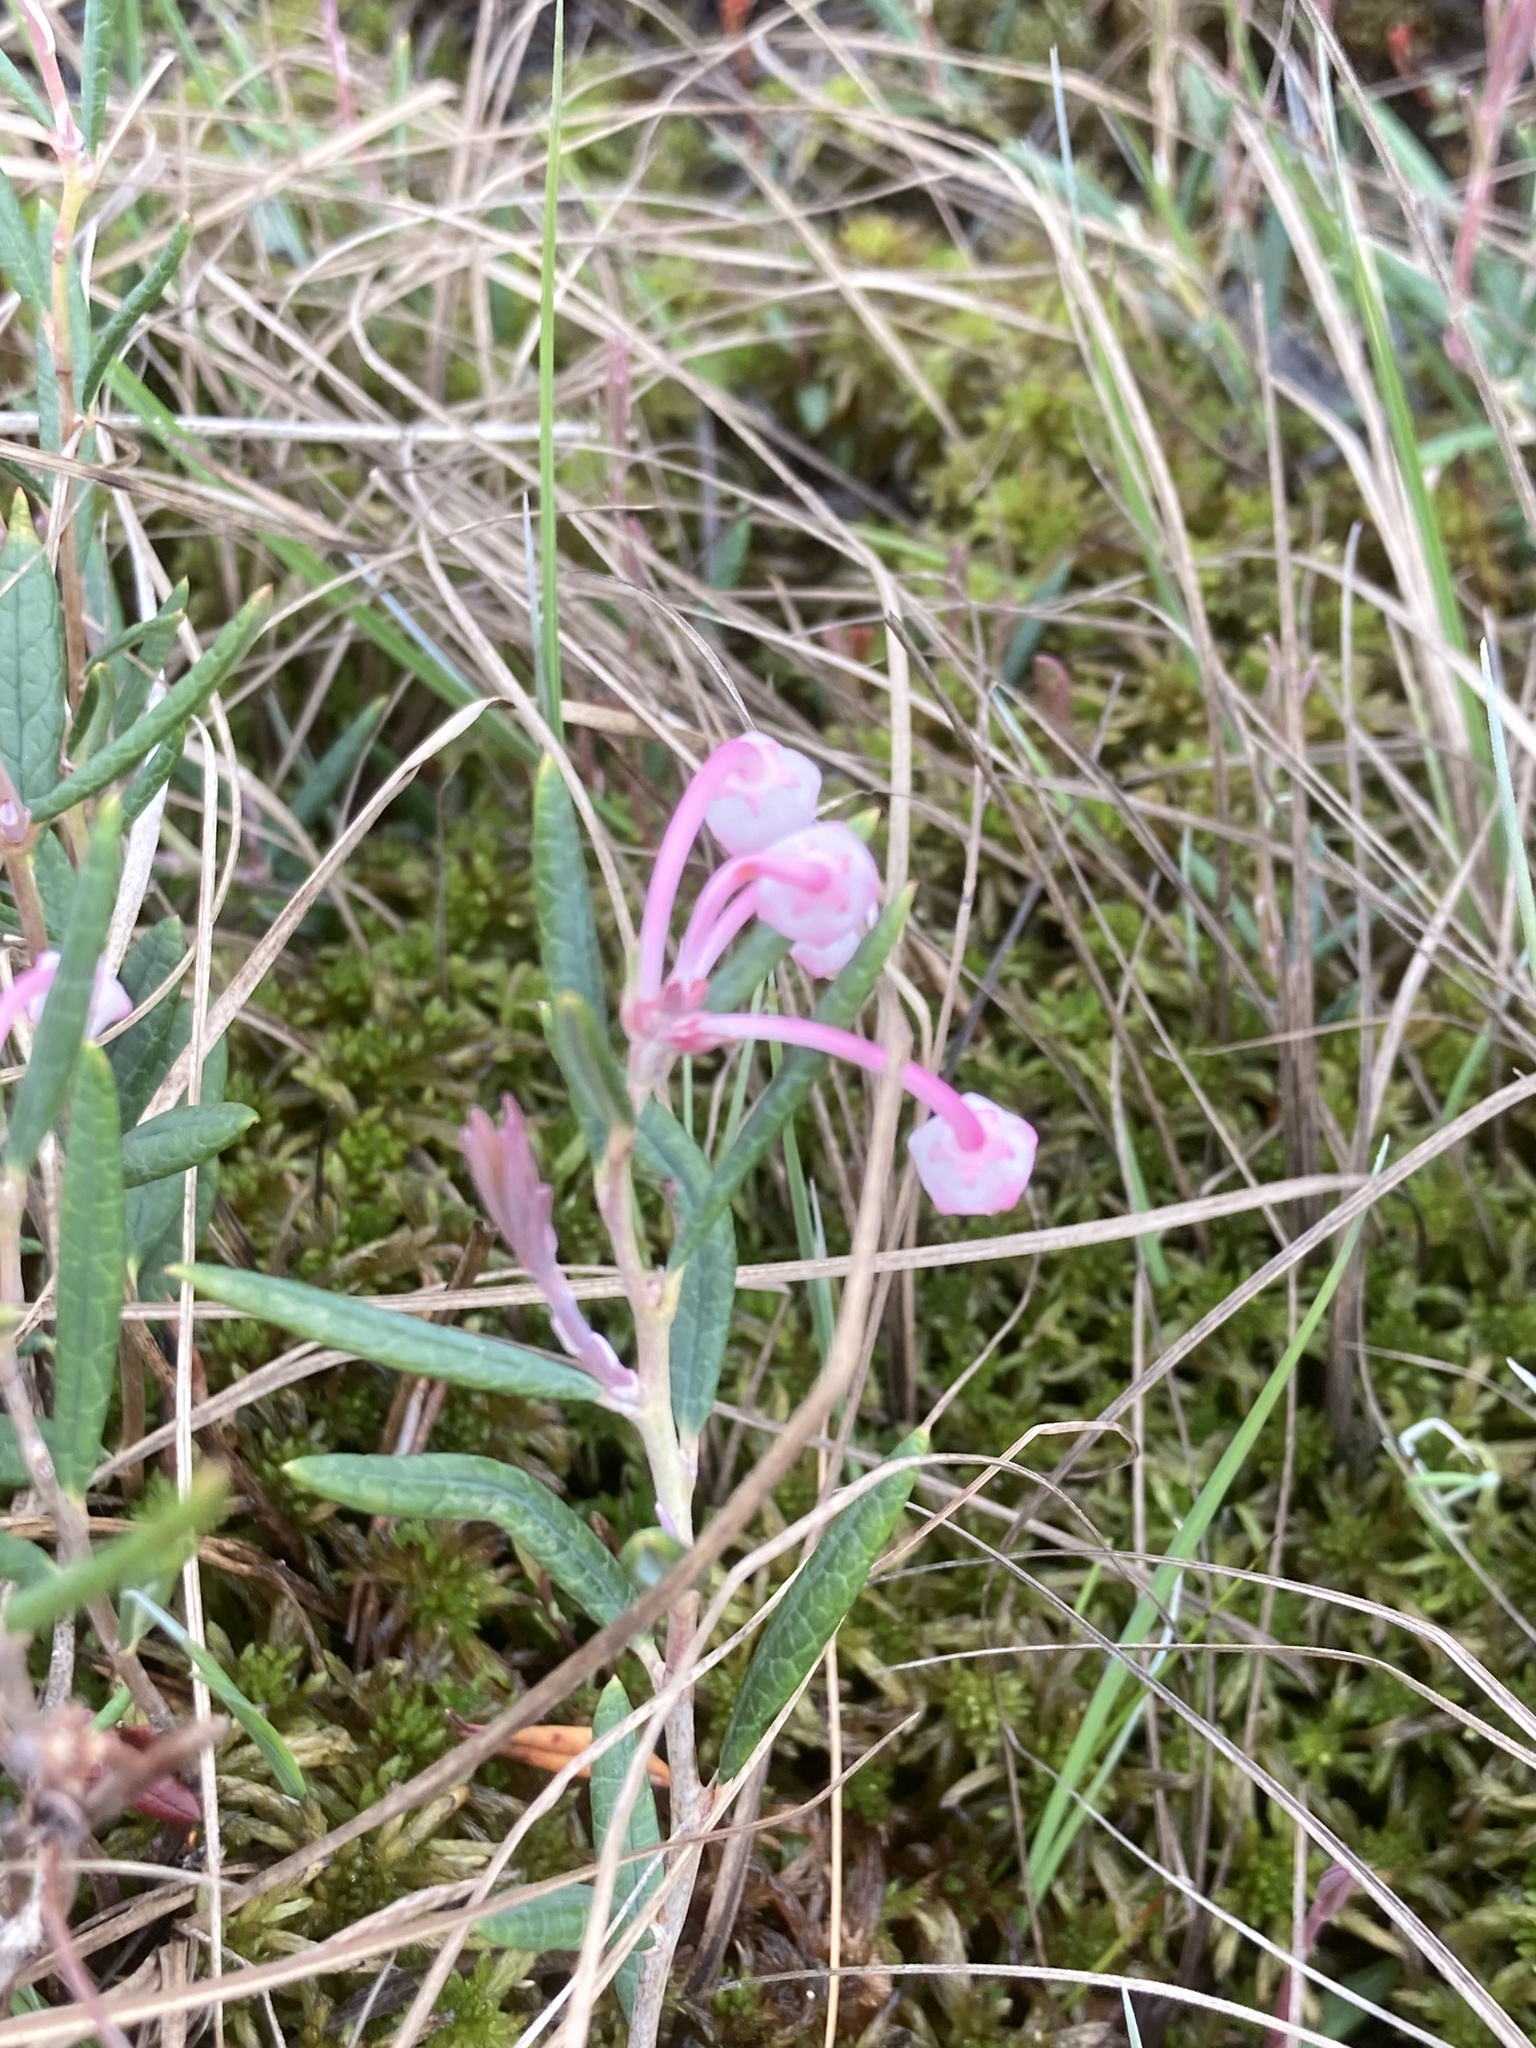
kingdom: Plantae
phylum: Tracheophyta
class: Magnoliopsida
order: Ericales
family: Ericaceae
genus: Andromeda
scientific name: Andromeda polifolia
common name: Bog-rosemary
